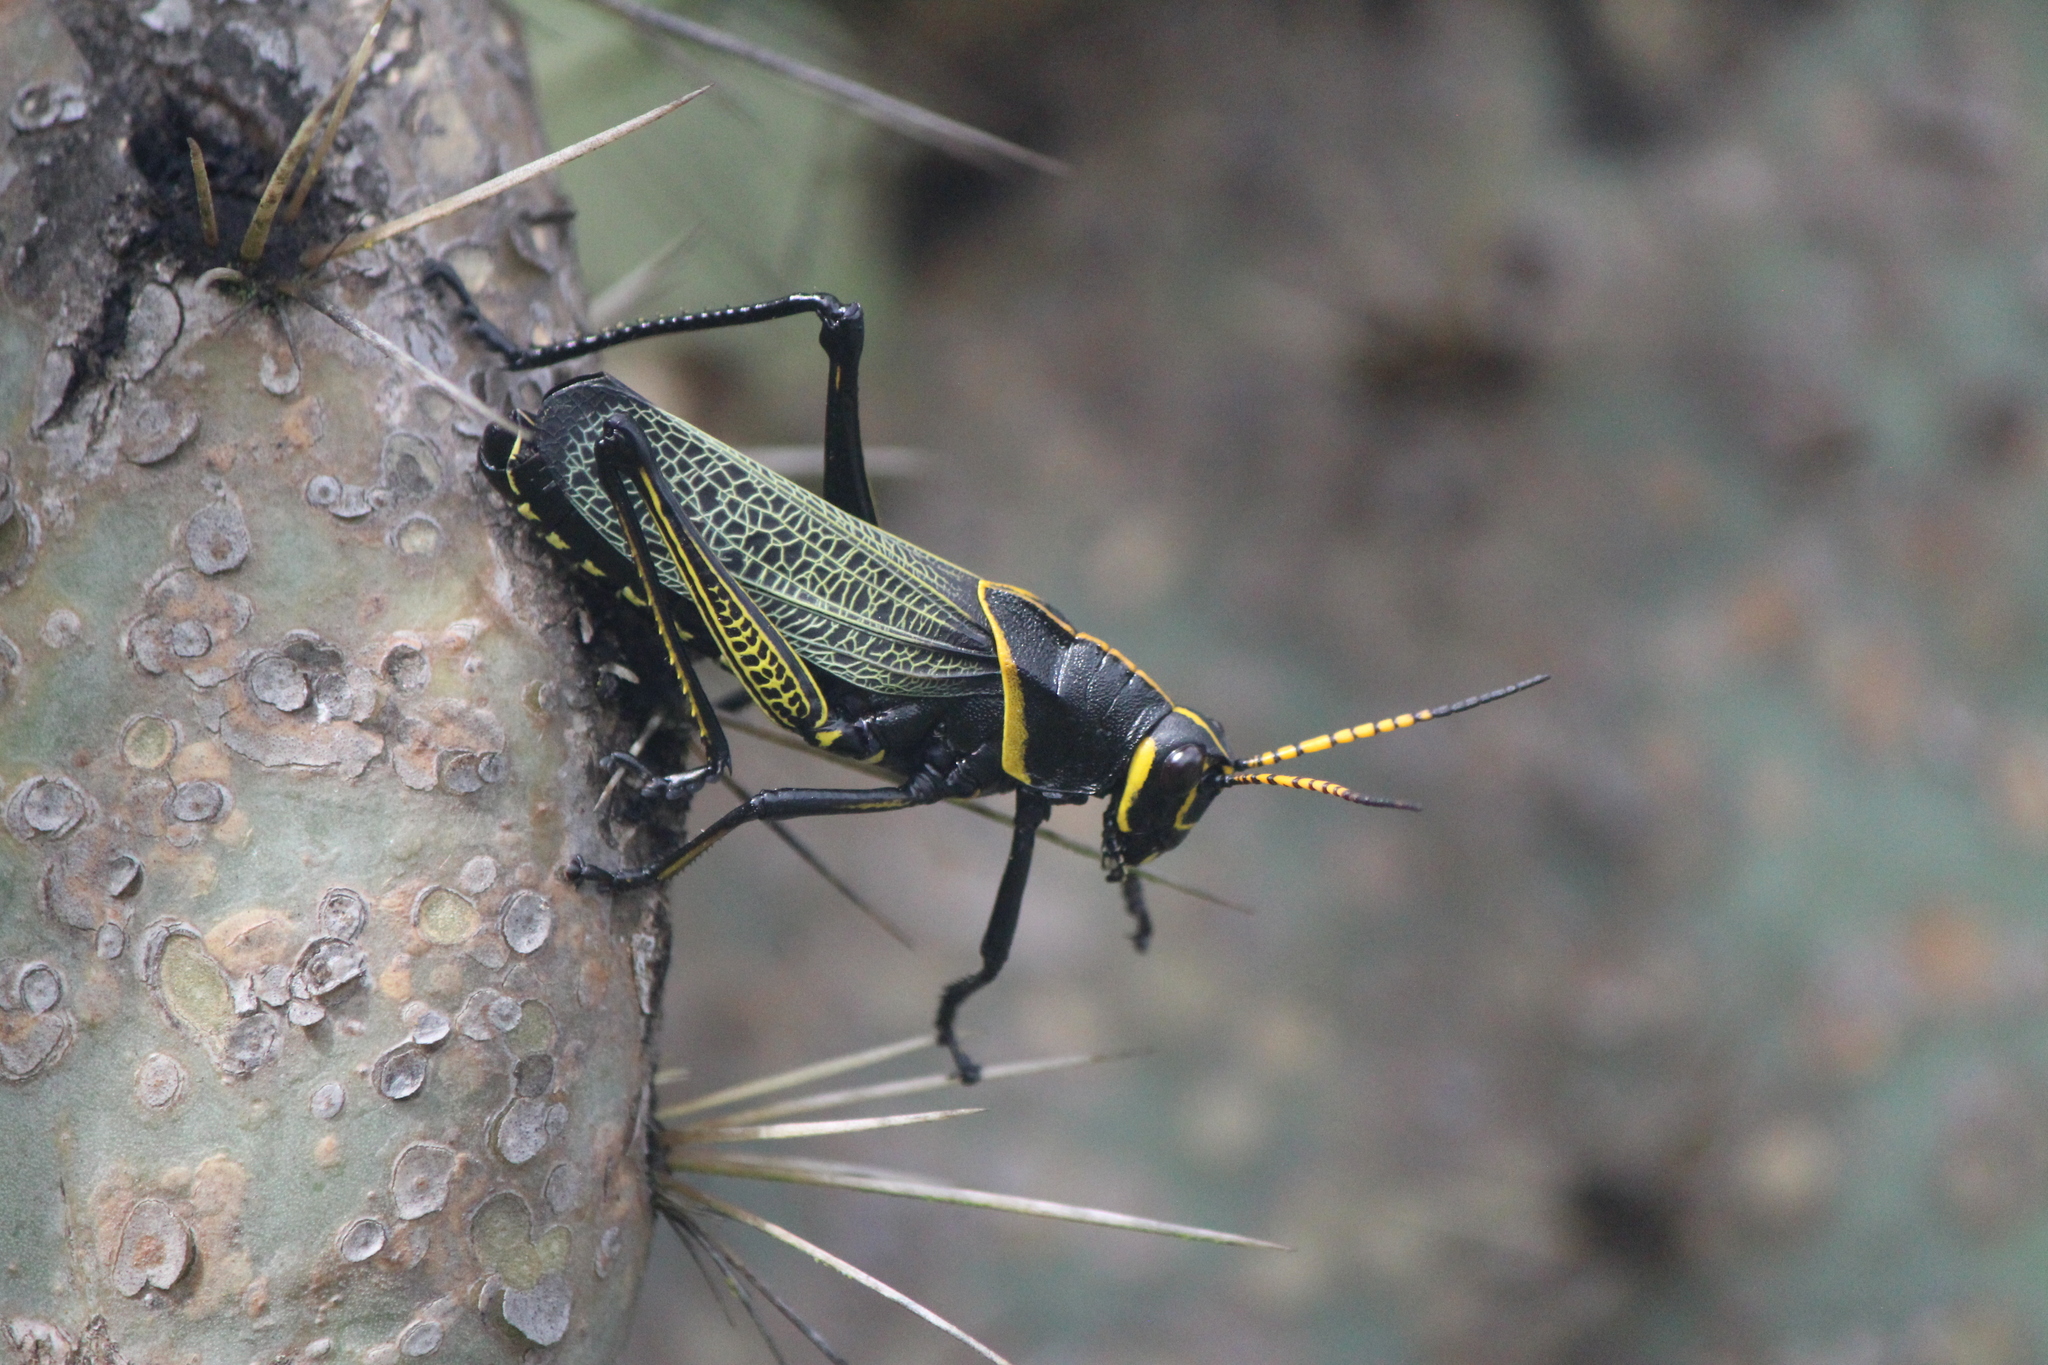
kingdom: Animalia
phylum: Arthropoda
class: Insecta
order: Orthoptera
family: Romaleidae
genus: Romalea
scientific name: Romalea
